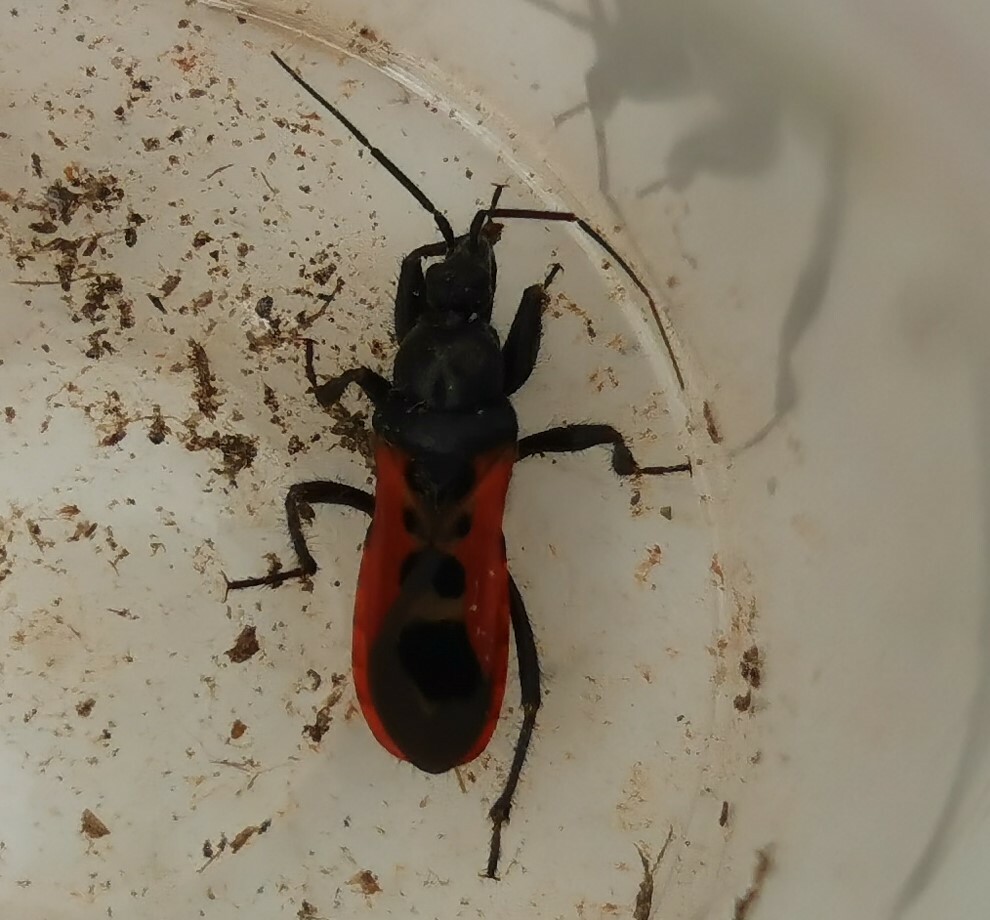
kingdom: Animalia
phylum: Arthropoda
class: Insecta
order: Hemiptera
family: Reduviidae
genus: Peirates
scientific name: Peirates stridulus
